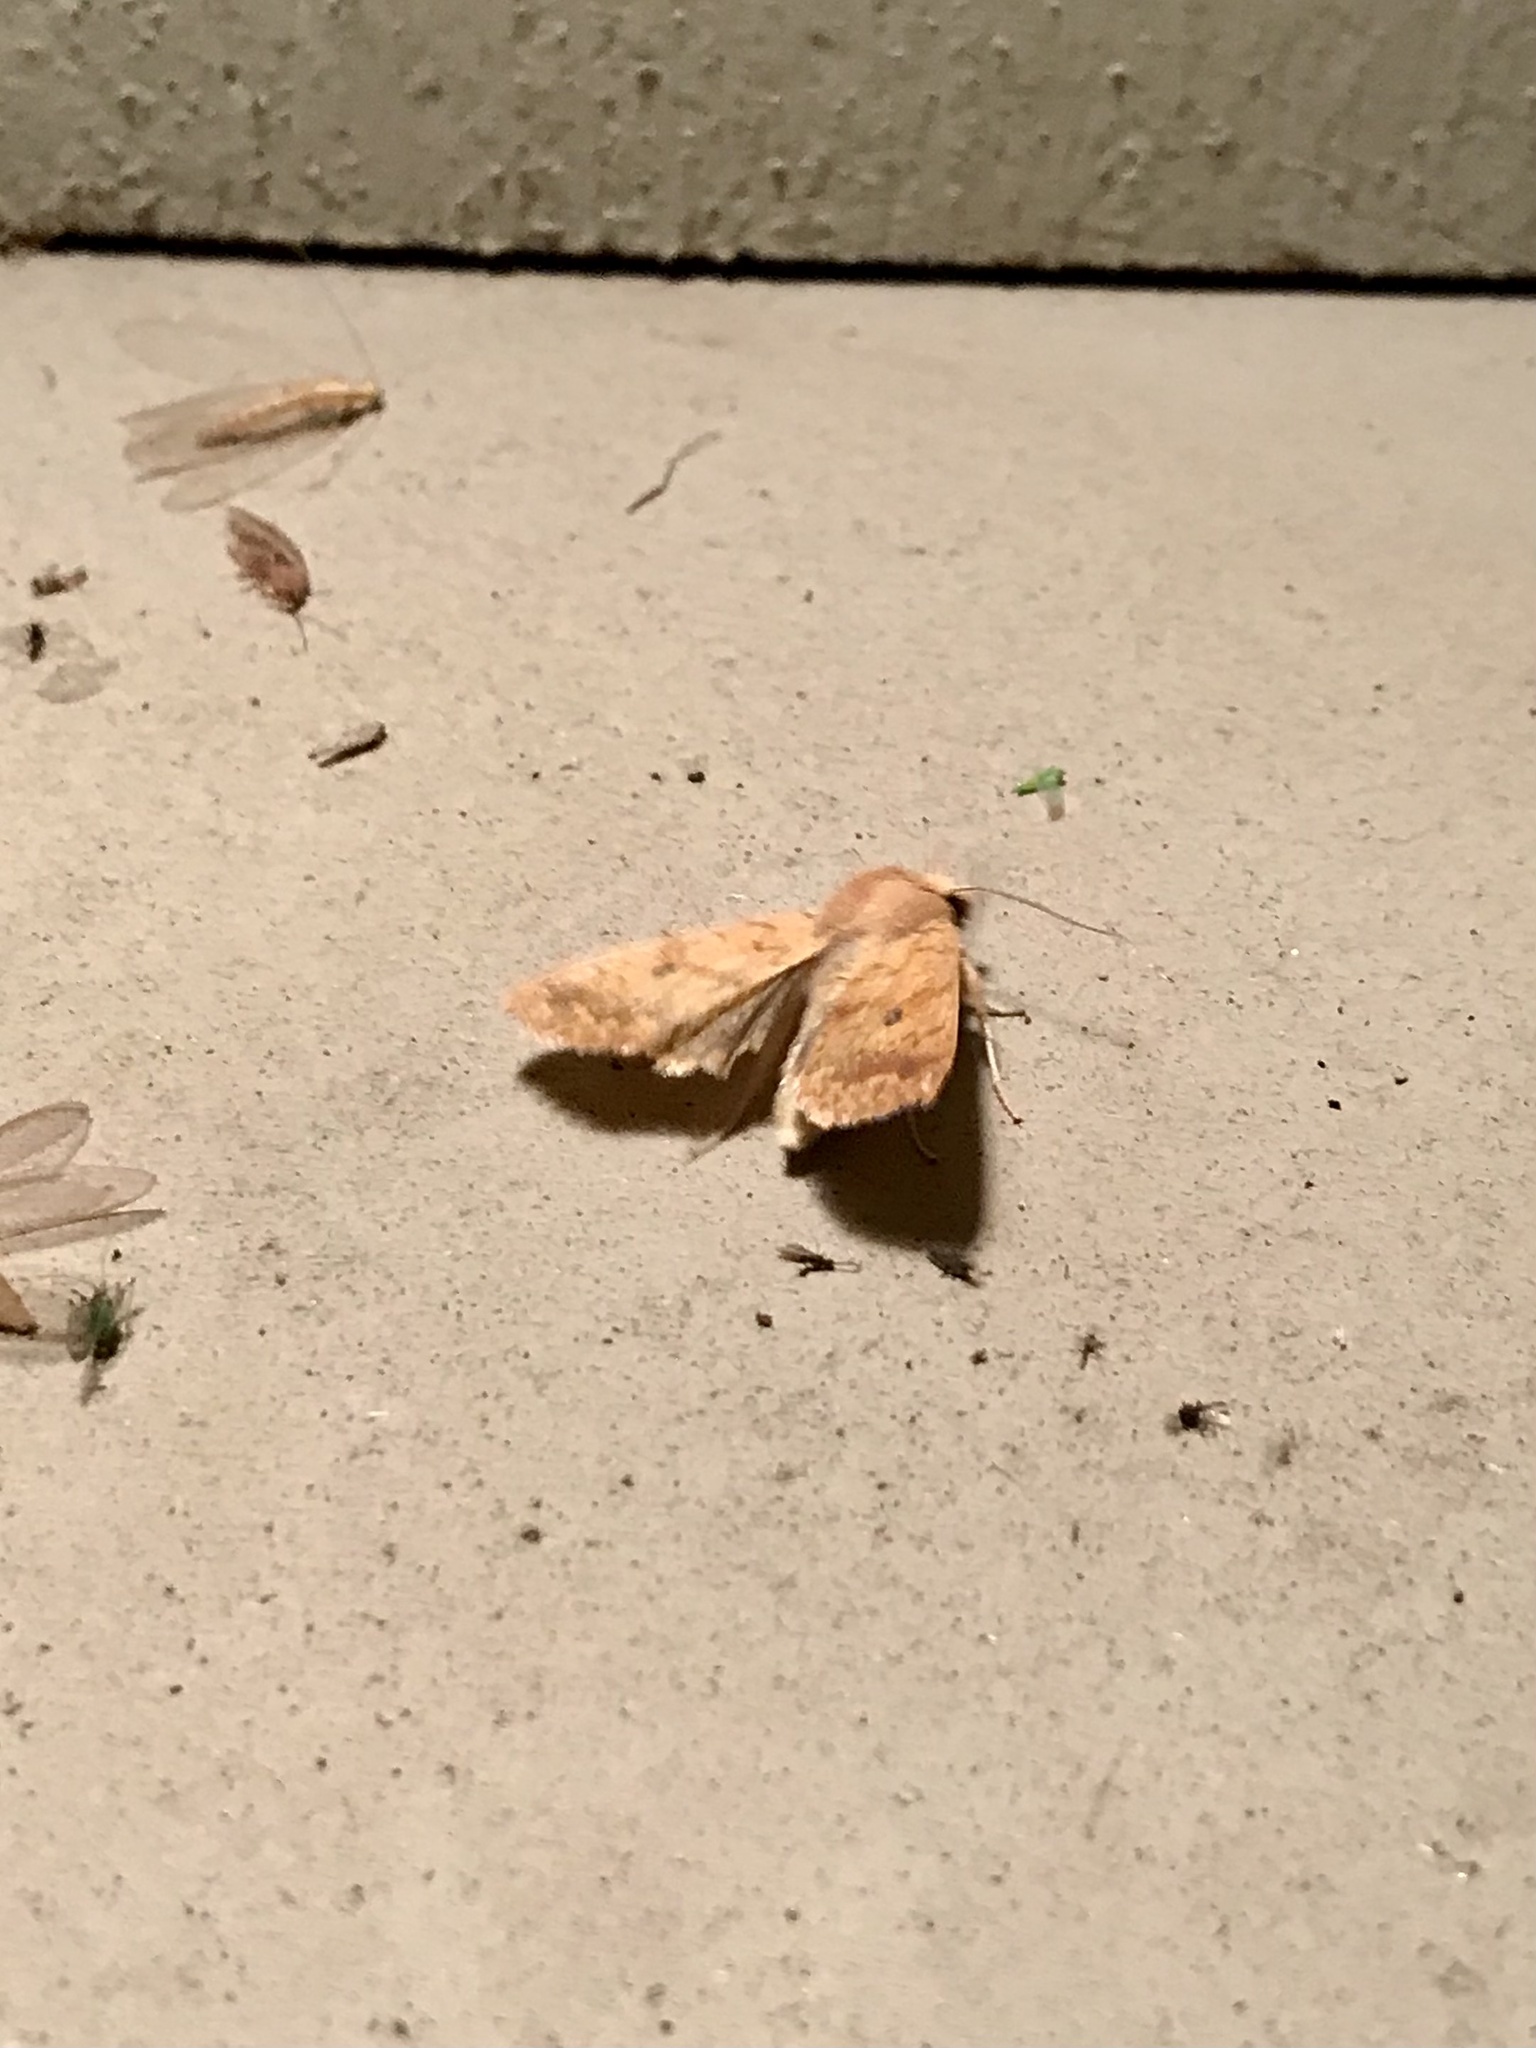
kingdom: Animalia
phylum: Arthropoda
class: Insecta
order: Lepidoptera
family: Noctuidae
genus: Agrochola
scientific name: Agrochola bicolorago
